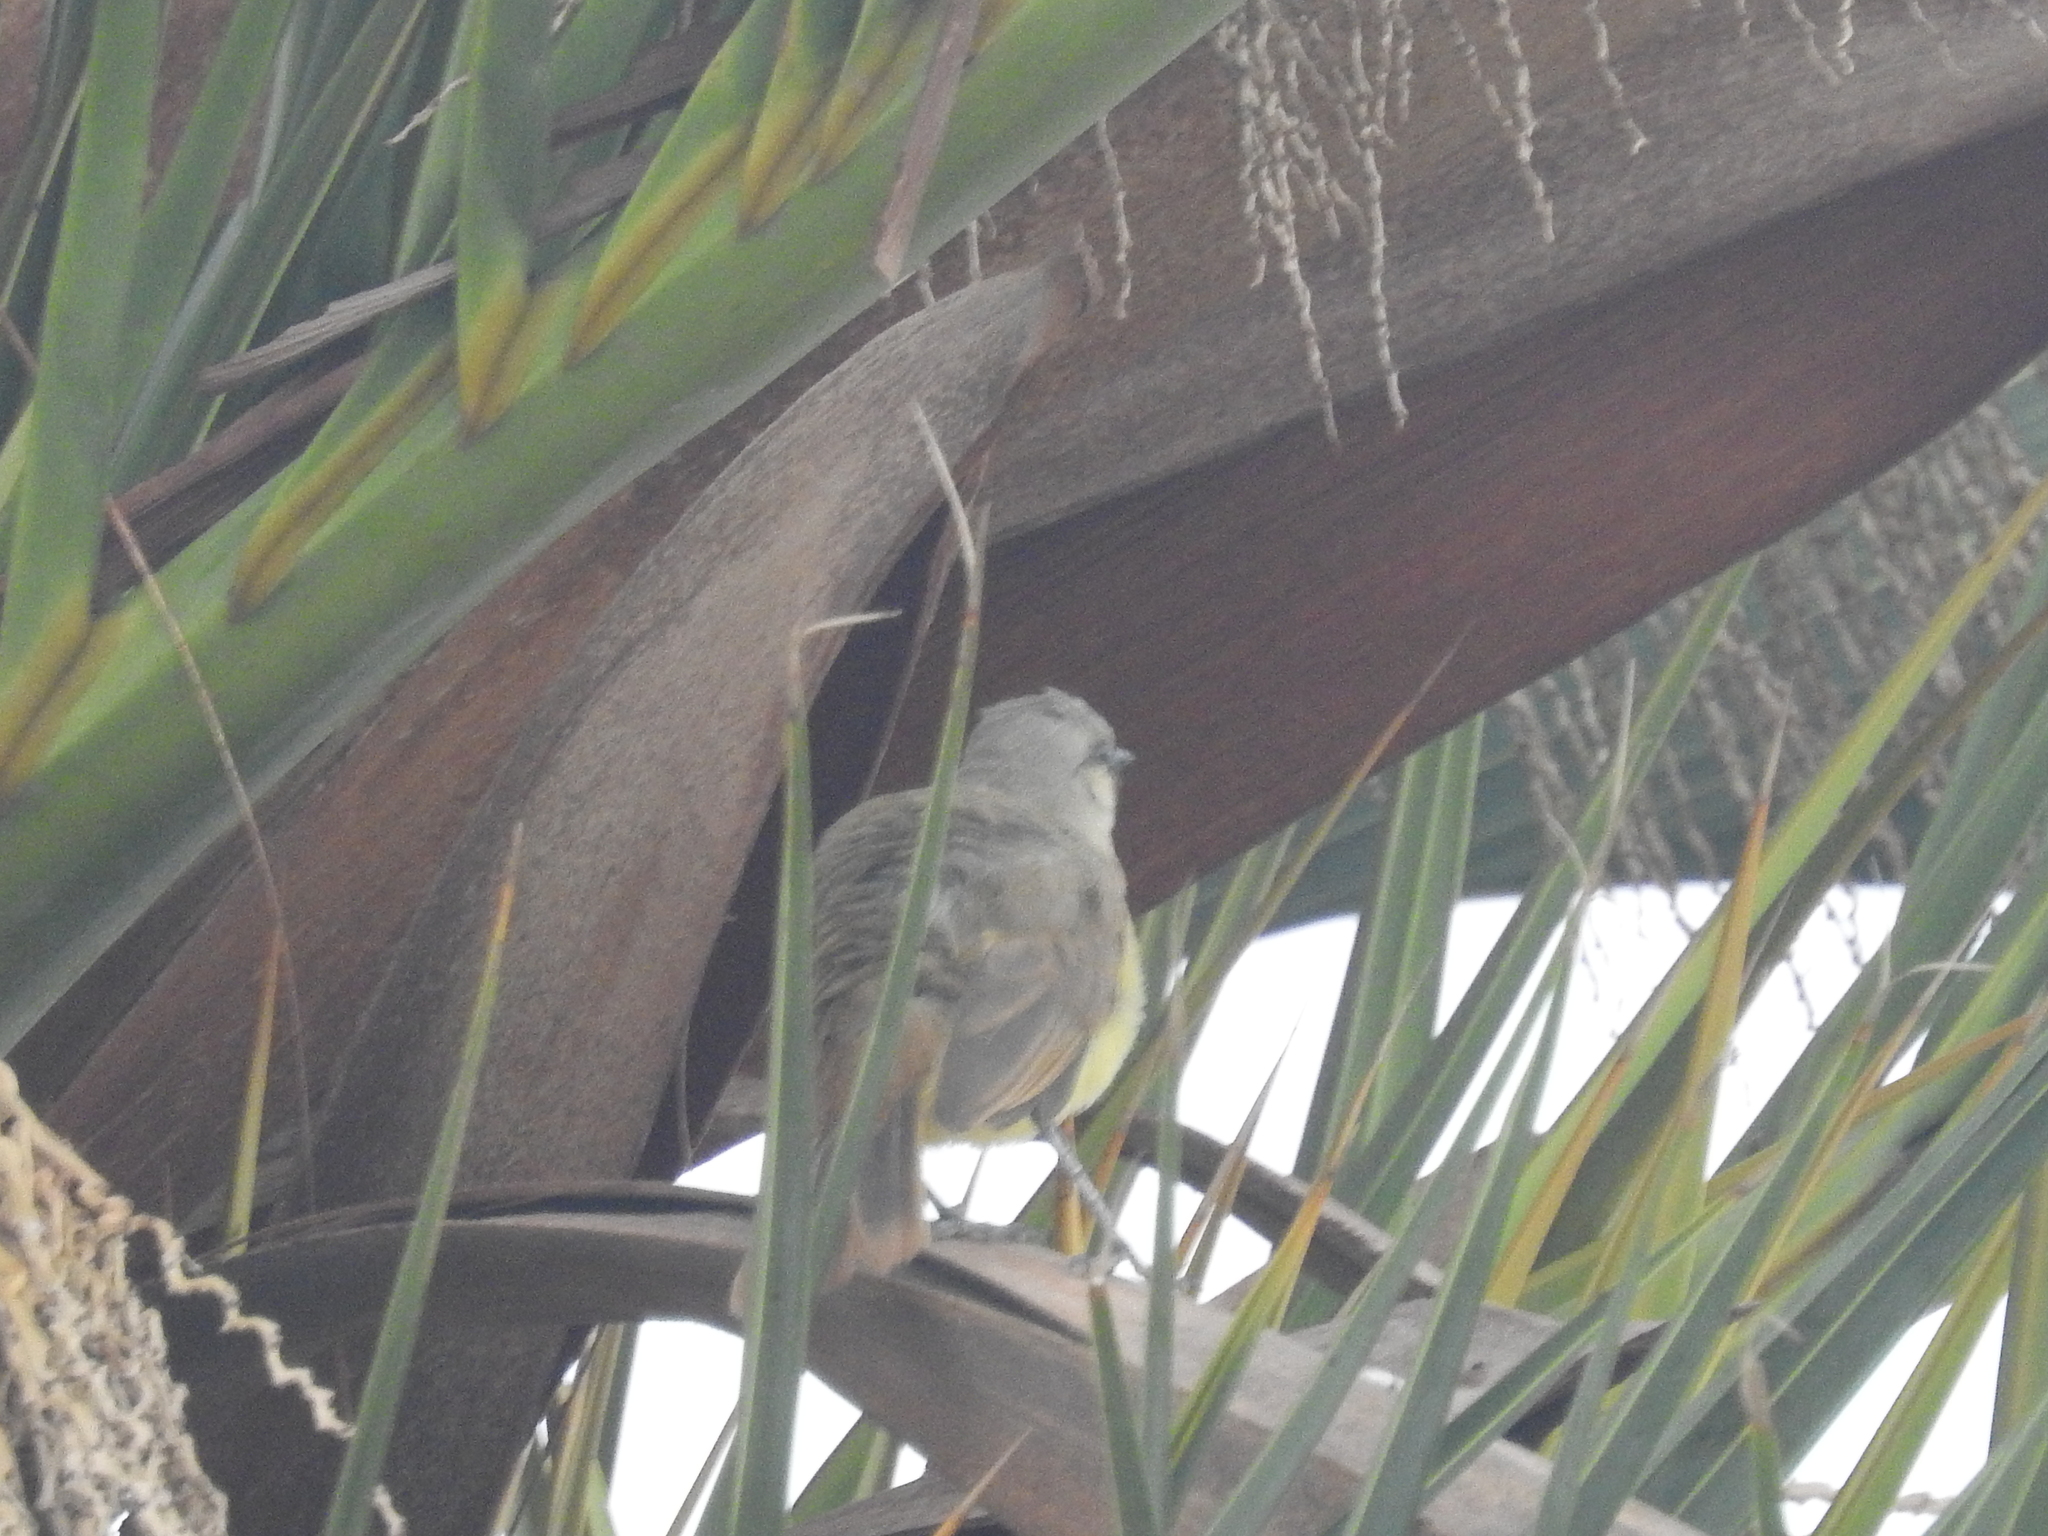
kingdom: Animalia
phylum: Chordata
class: Aves
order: Passeriformes
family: Tyrannidae
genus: Machetornis
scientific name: Machetornis rixosa
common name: Cattle tyrant
